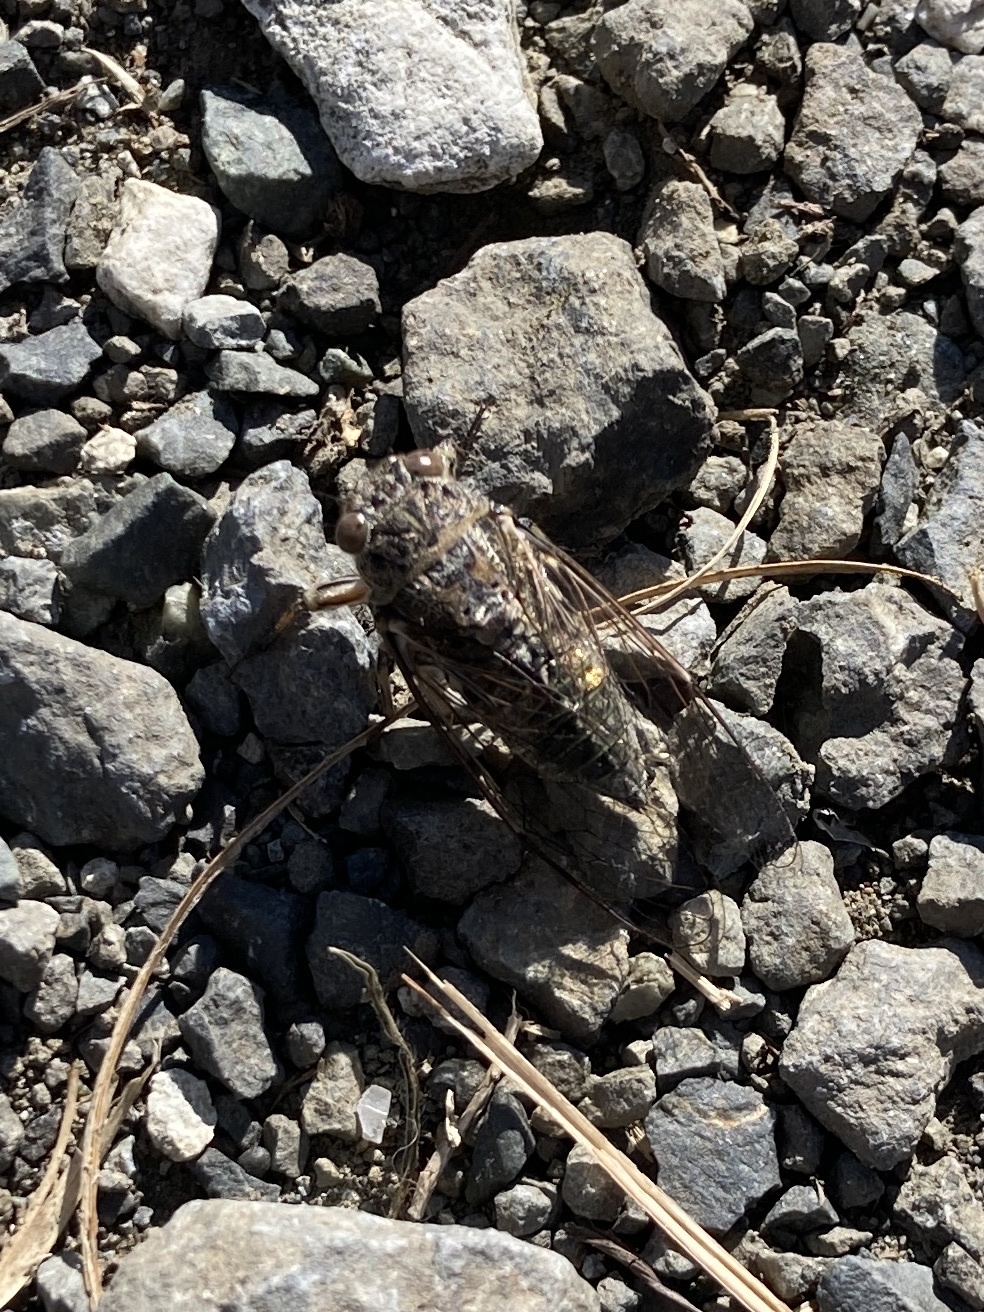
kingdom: Animalia
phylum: Arthropoda
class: Insecta
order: Hemiptera
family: Cicadidae
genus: Notopsalta
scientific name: Notopsalta sericea
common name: Clay bank cicada
